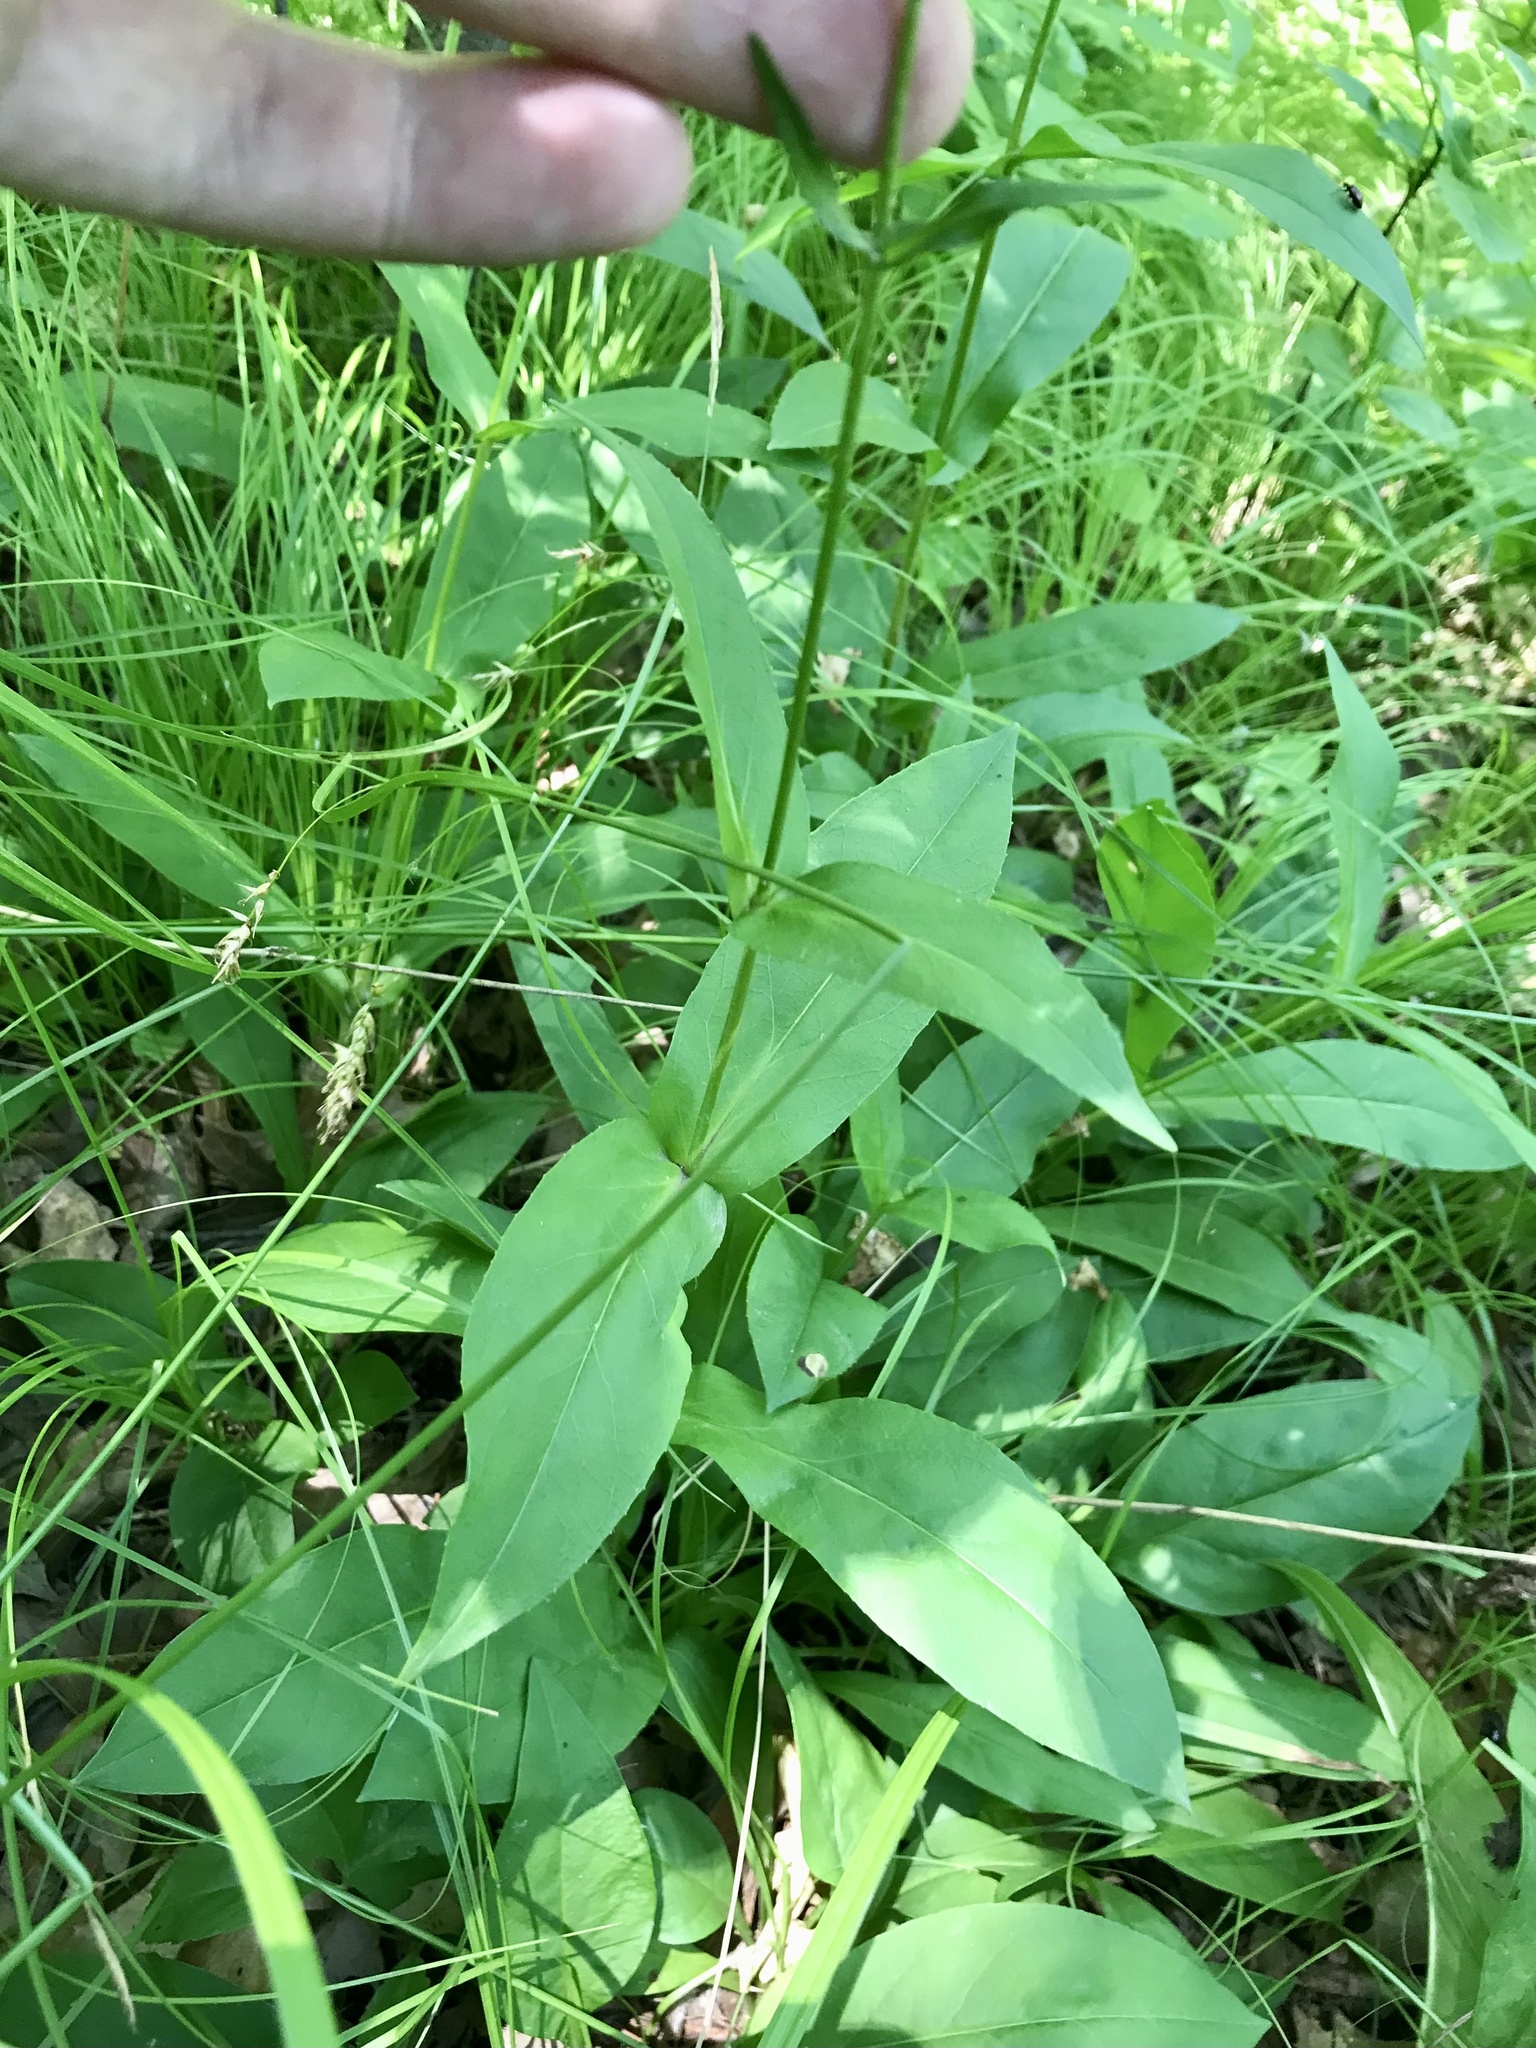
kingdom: Plantae
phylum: Tracheophyta
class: Magnoliopsida
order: Lamiales
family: Plantaginaceae
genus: Penstemon
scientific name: Penstemon digitalis
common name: Foxglove beardtongue
